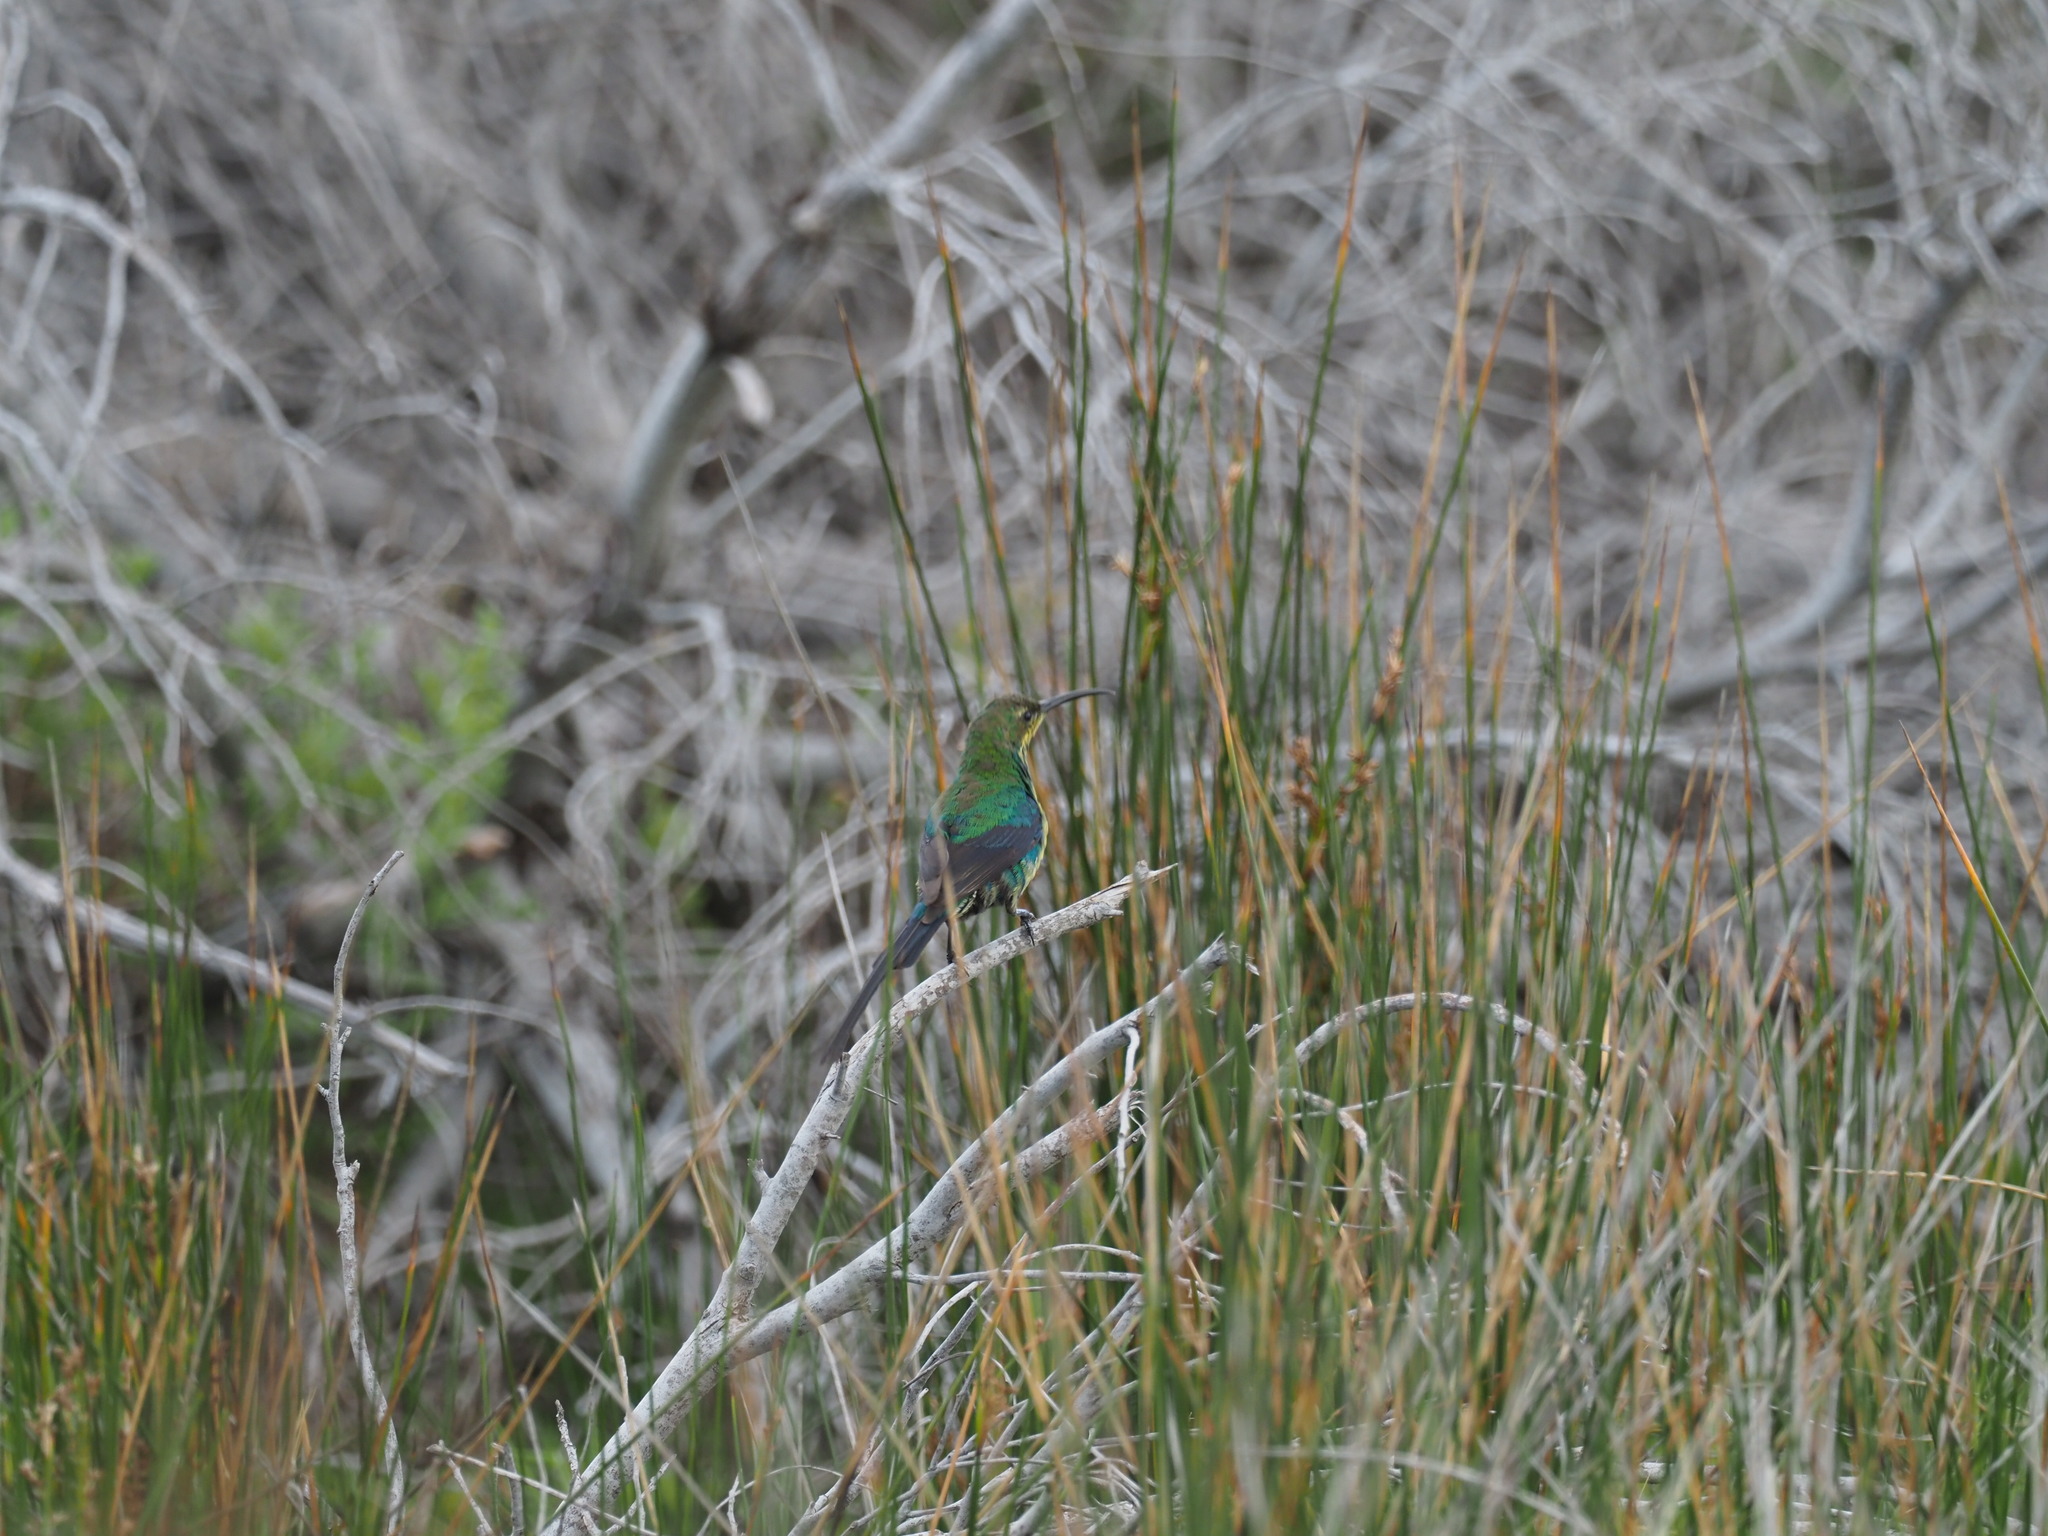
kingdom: Animalia
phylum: Chordata
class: Aves
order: Passeriformes
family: Nectariniidae
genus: Nectarinia
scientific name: Nectarinia famosa
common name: Malachite sunbird
